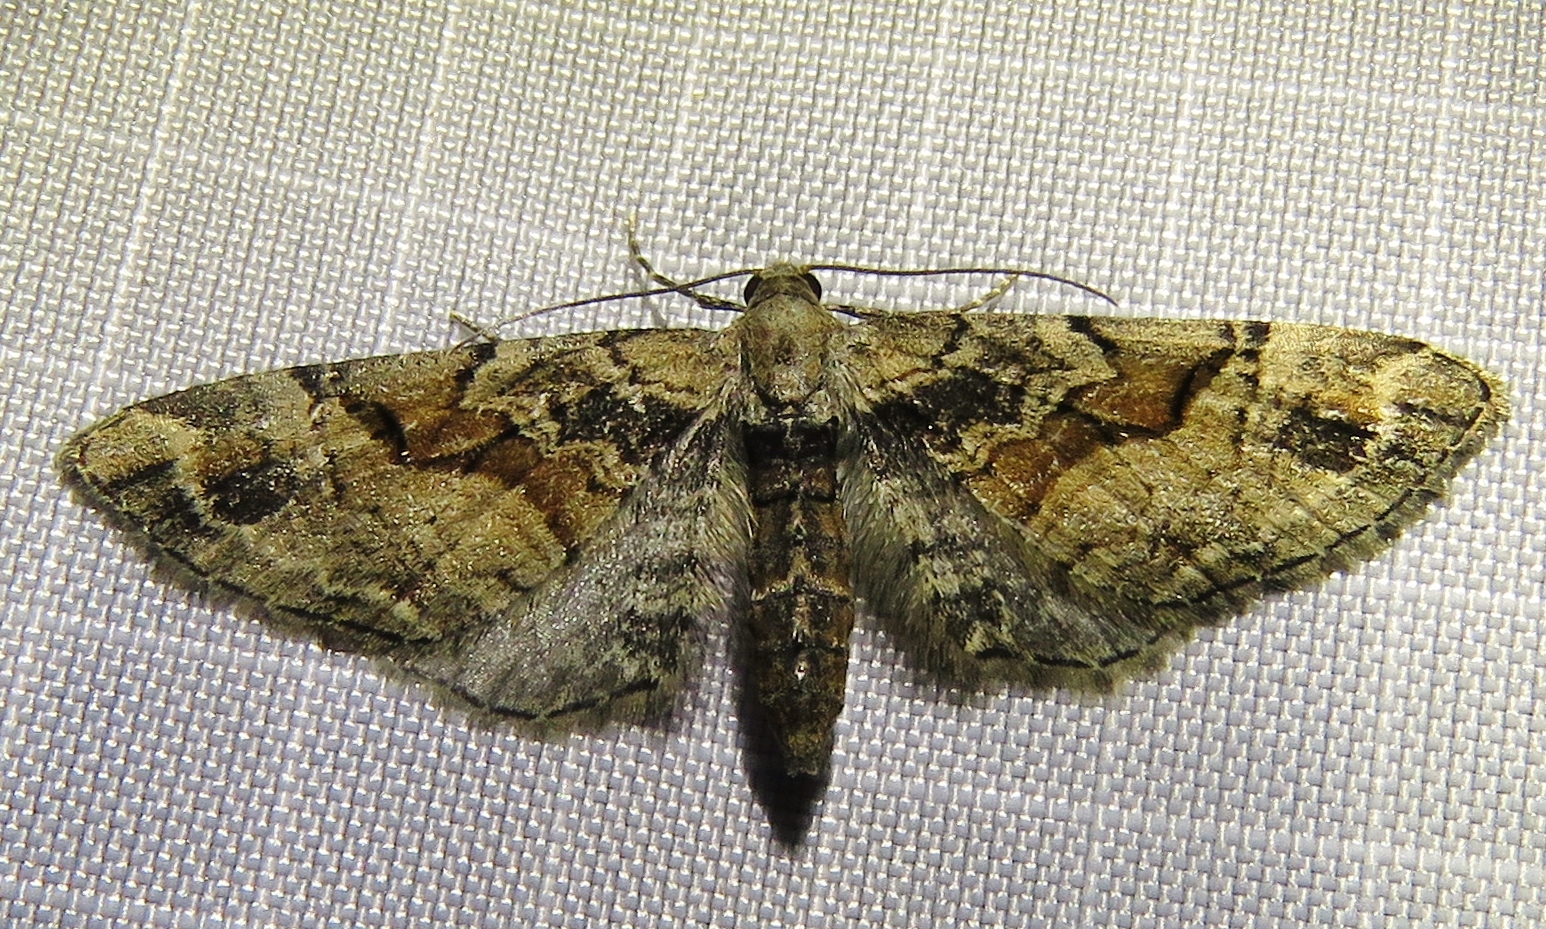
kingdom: Animalia
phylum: Arthropoda
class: Insecta
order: Lepidoptera
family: Geometridae
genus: Eupithecia
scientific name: Eupithecia sinuosaria
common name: Goosefoot pug
